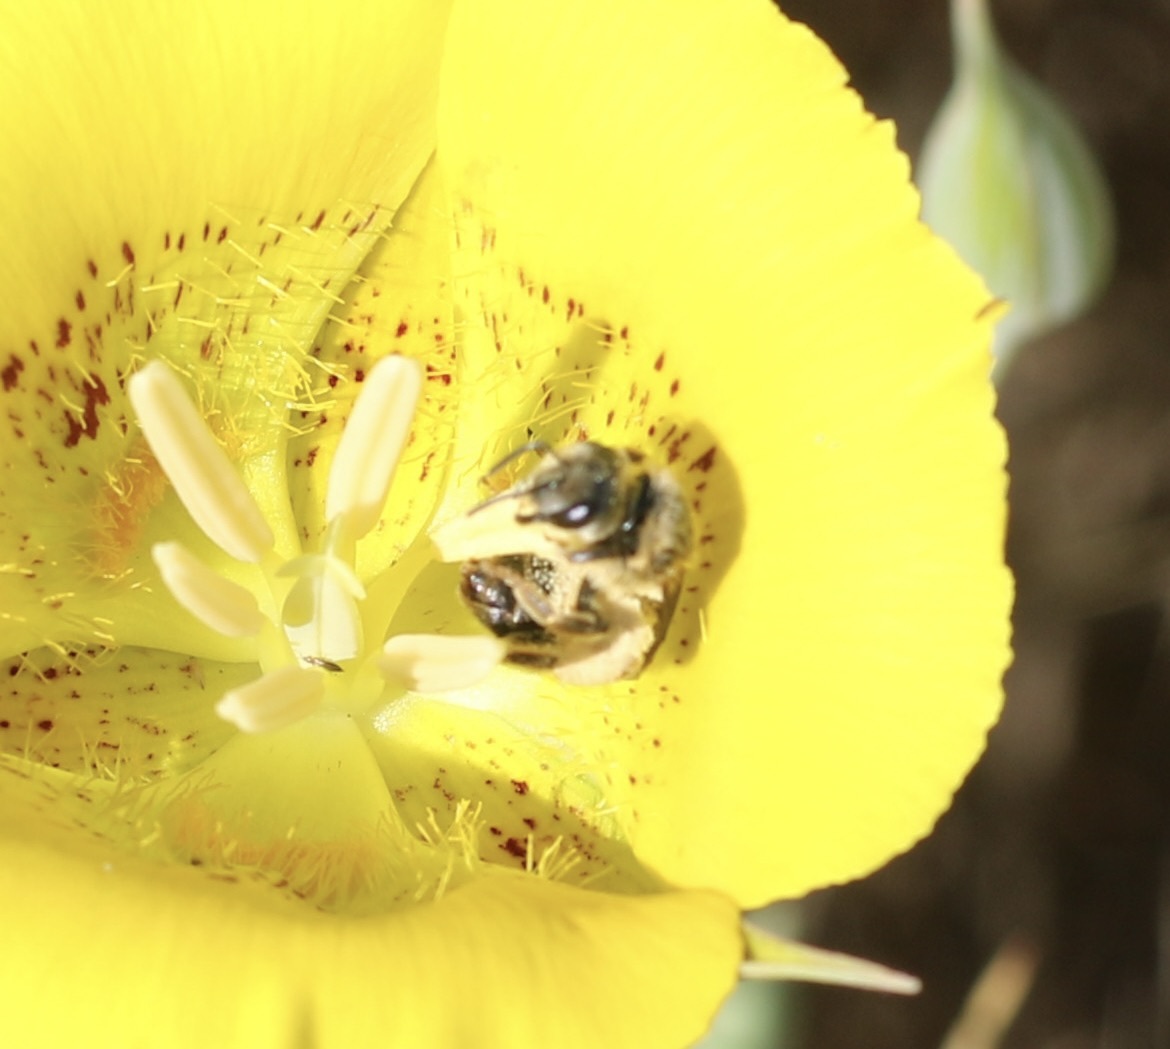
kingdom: Animalia
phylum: Arthropoda
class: Insecta
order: Hymenoptera
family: Halictidae
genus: Halictus
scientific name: Halictus farinosus
